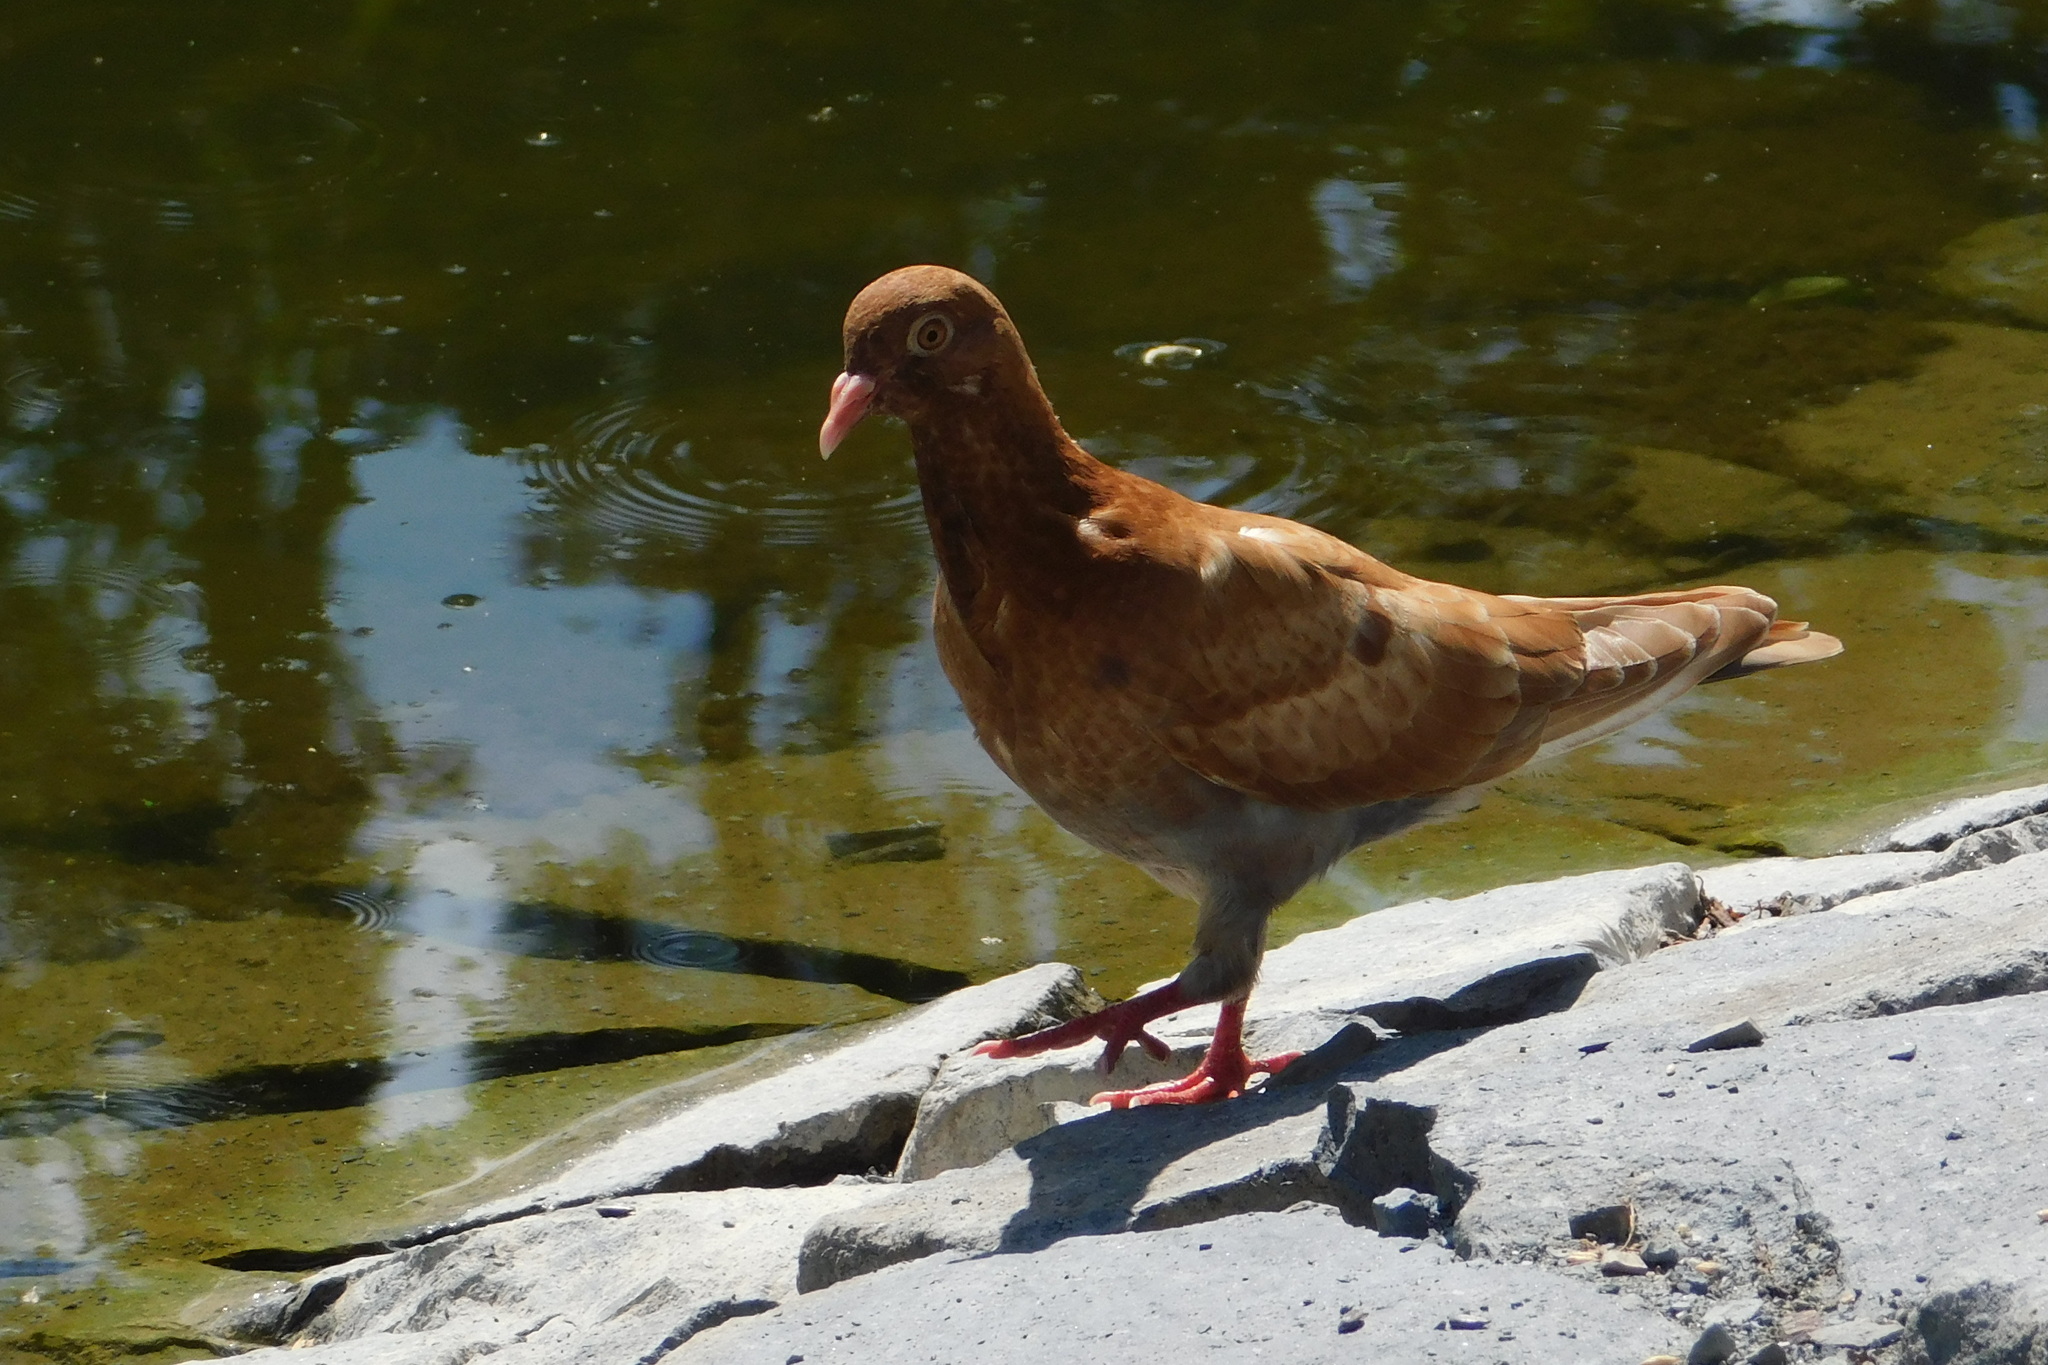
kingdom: Animalia
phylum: Chordata
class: Aves
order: Columbiformes
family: Columbidae
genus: Columba
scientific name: Columba livia
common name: Rock pigeon
